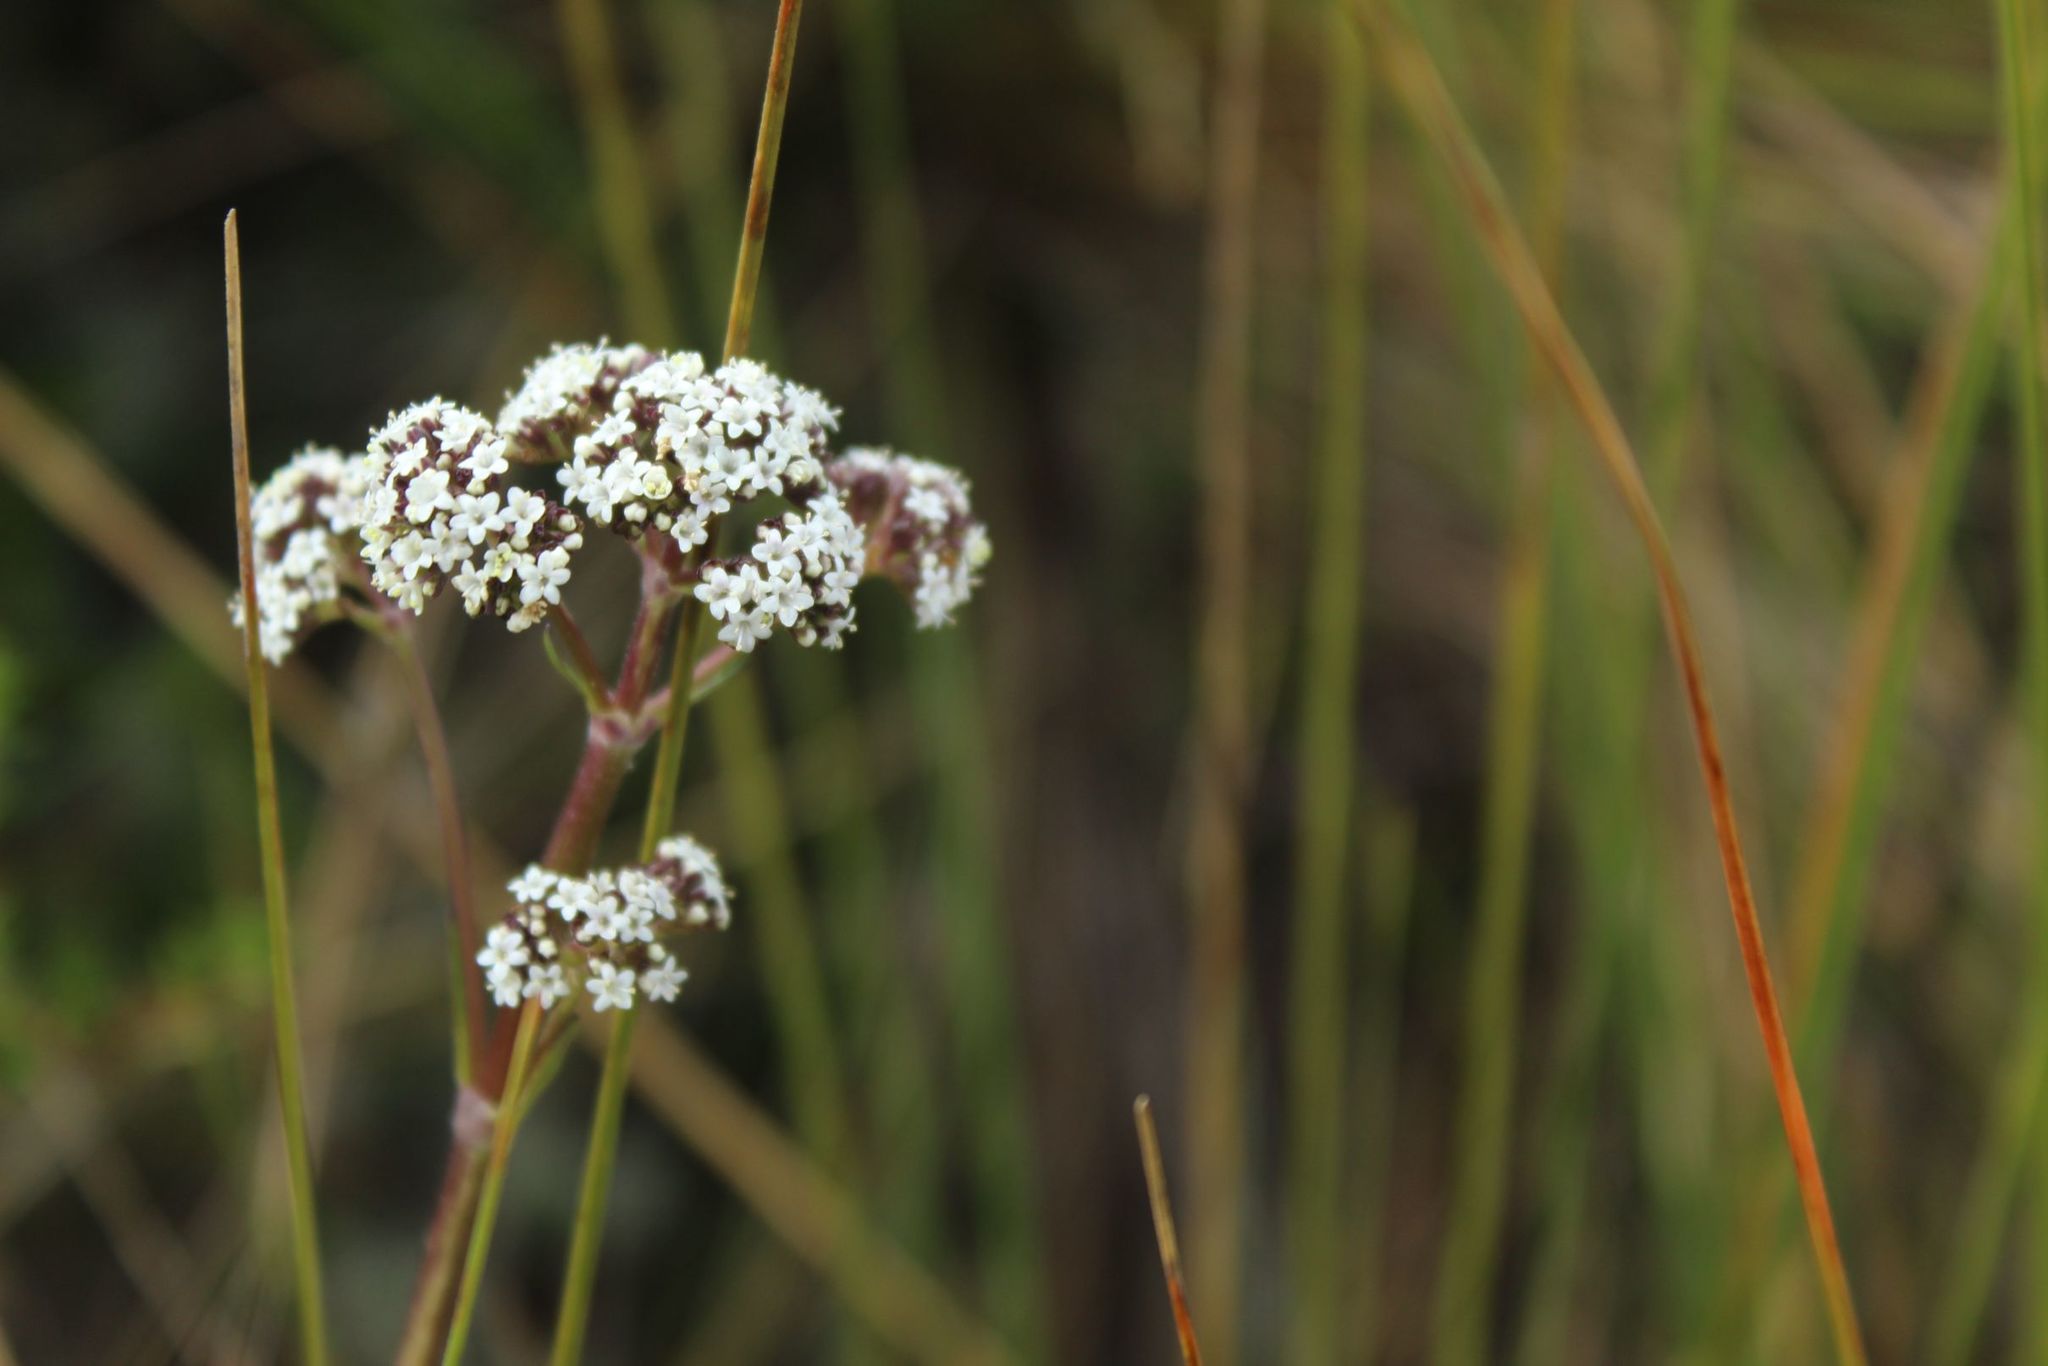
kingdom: Plantae
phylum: Tracheophyta
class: Magnoliopsida
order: Dipsacales
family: Caprifoliaceae
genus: Valeriana
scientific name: Valeriana pilosa
